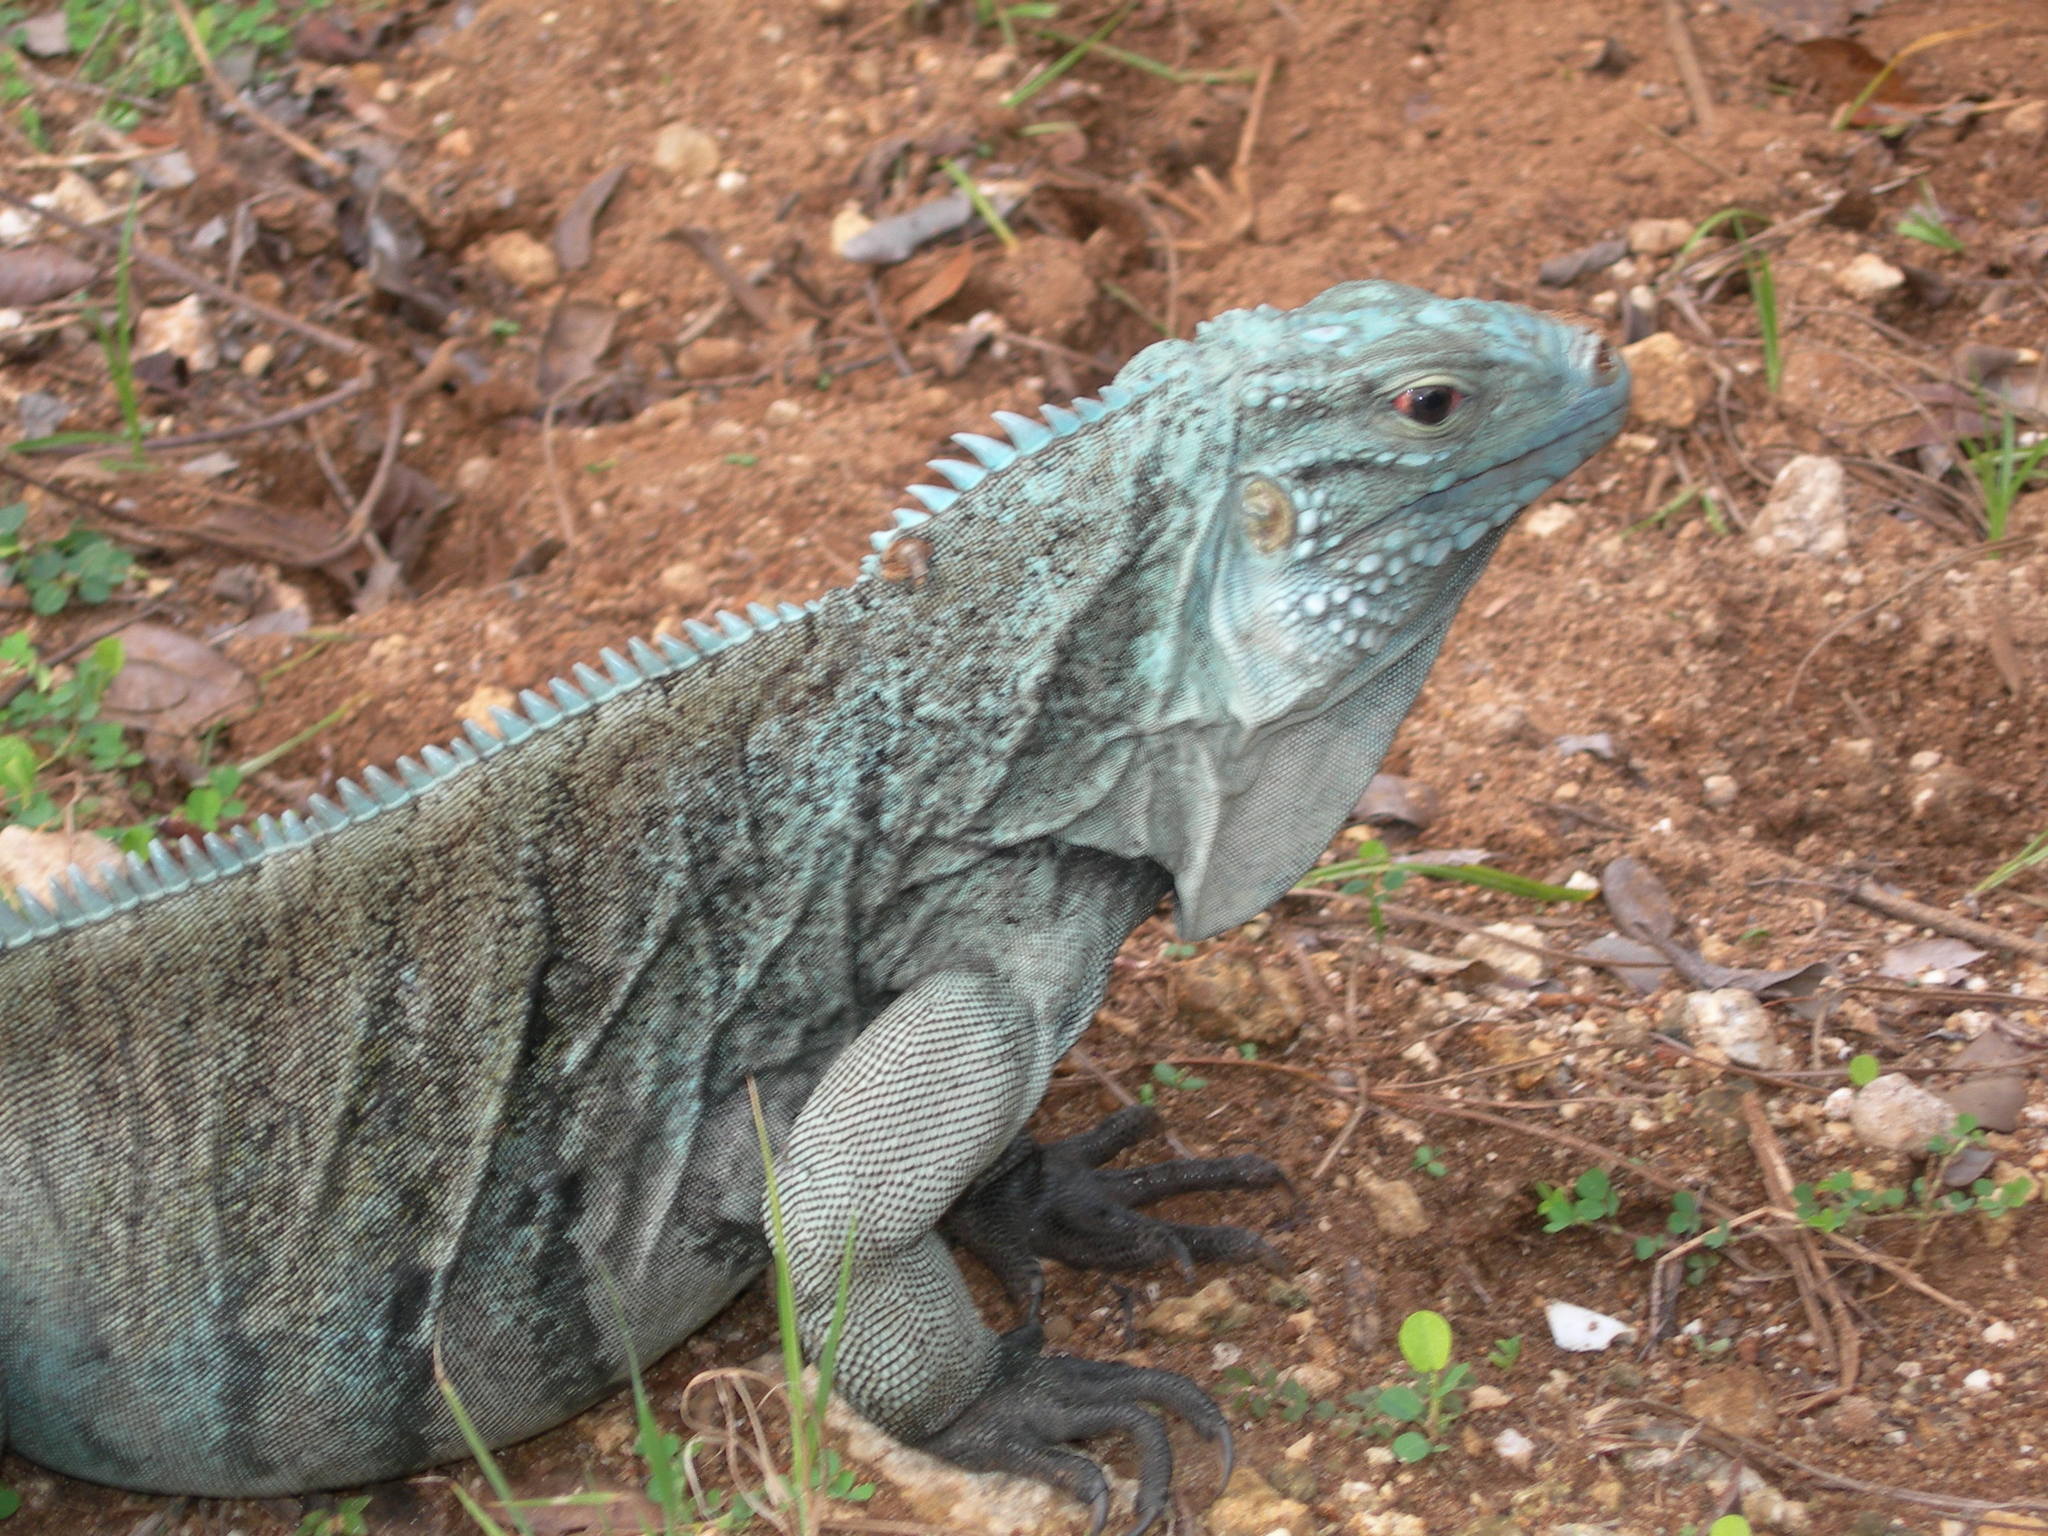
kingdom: Animalia
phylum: Chordata
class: Squamata
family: Iguanidae
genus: Cyclura
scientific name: Cyclura lewisi
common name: Grand cayman blue iguana
